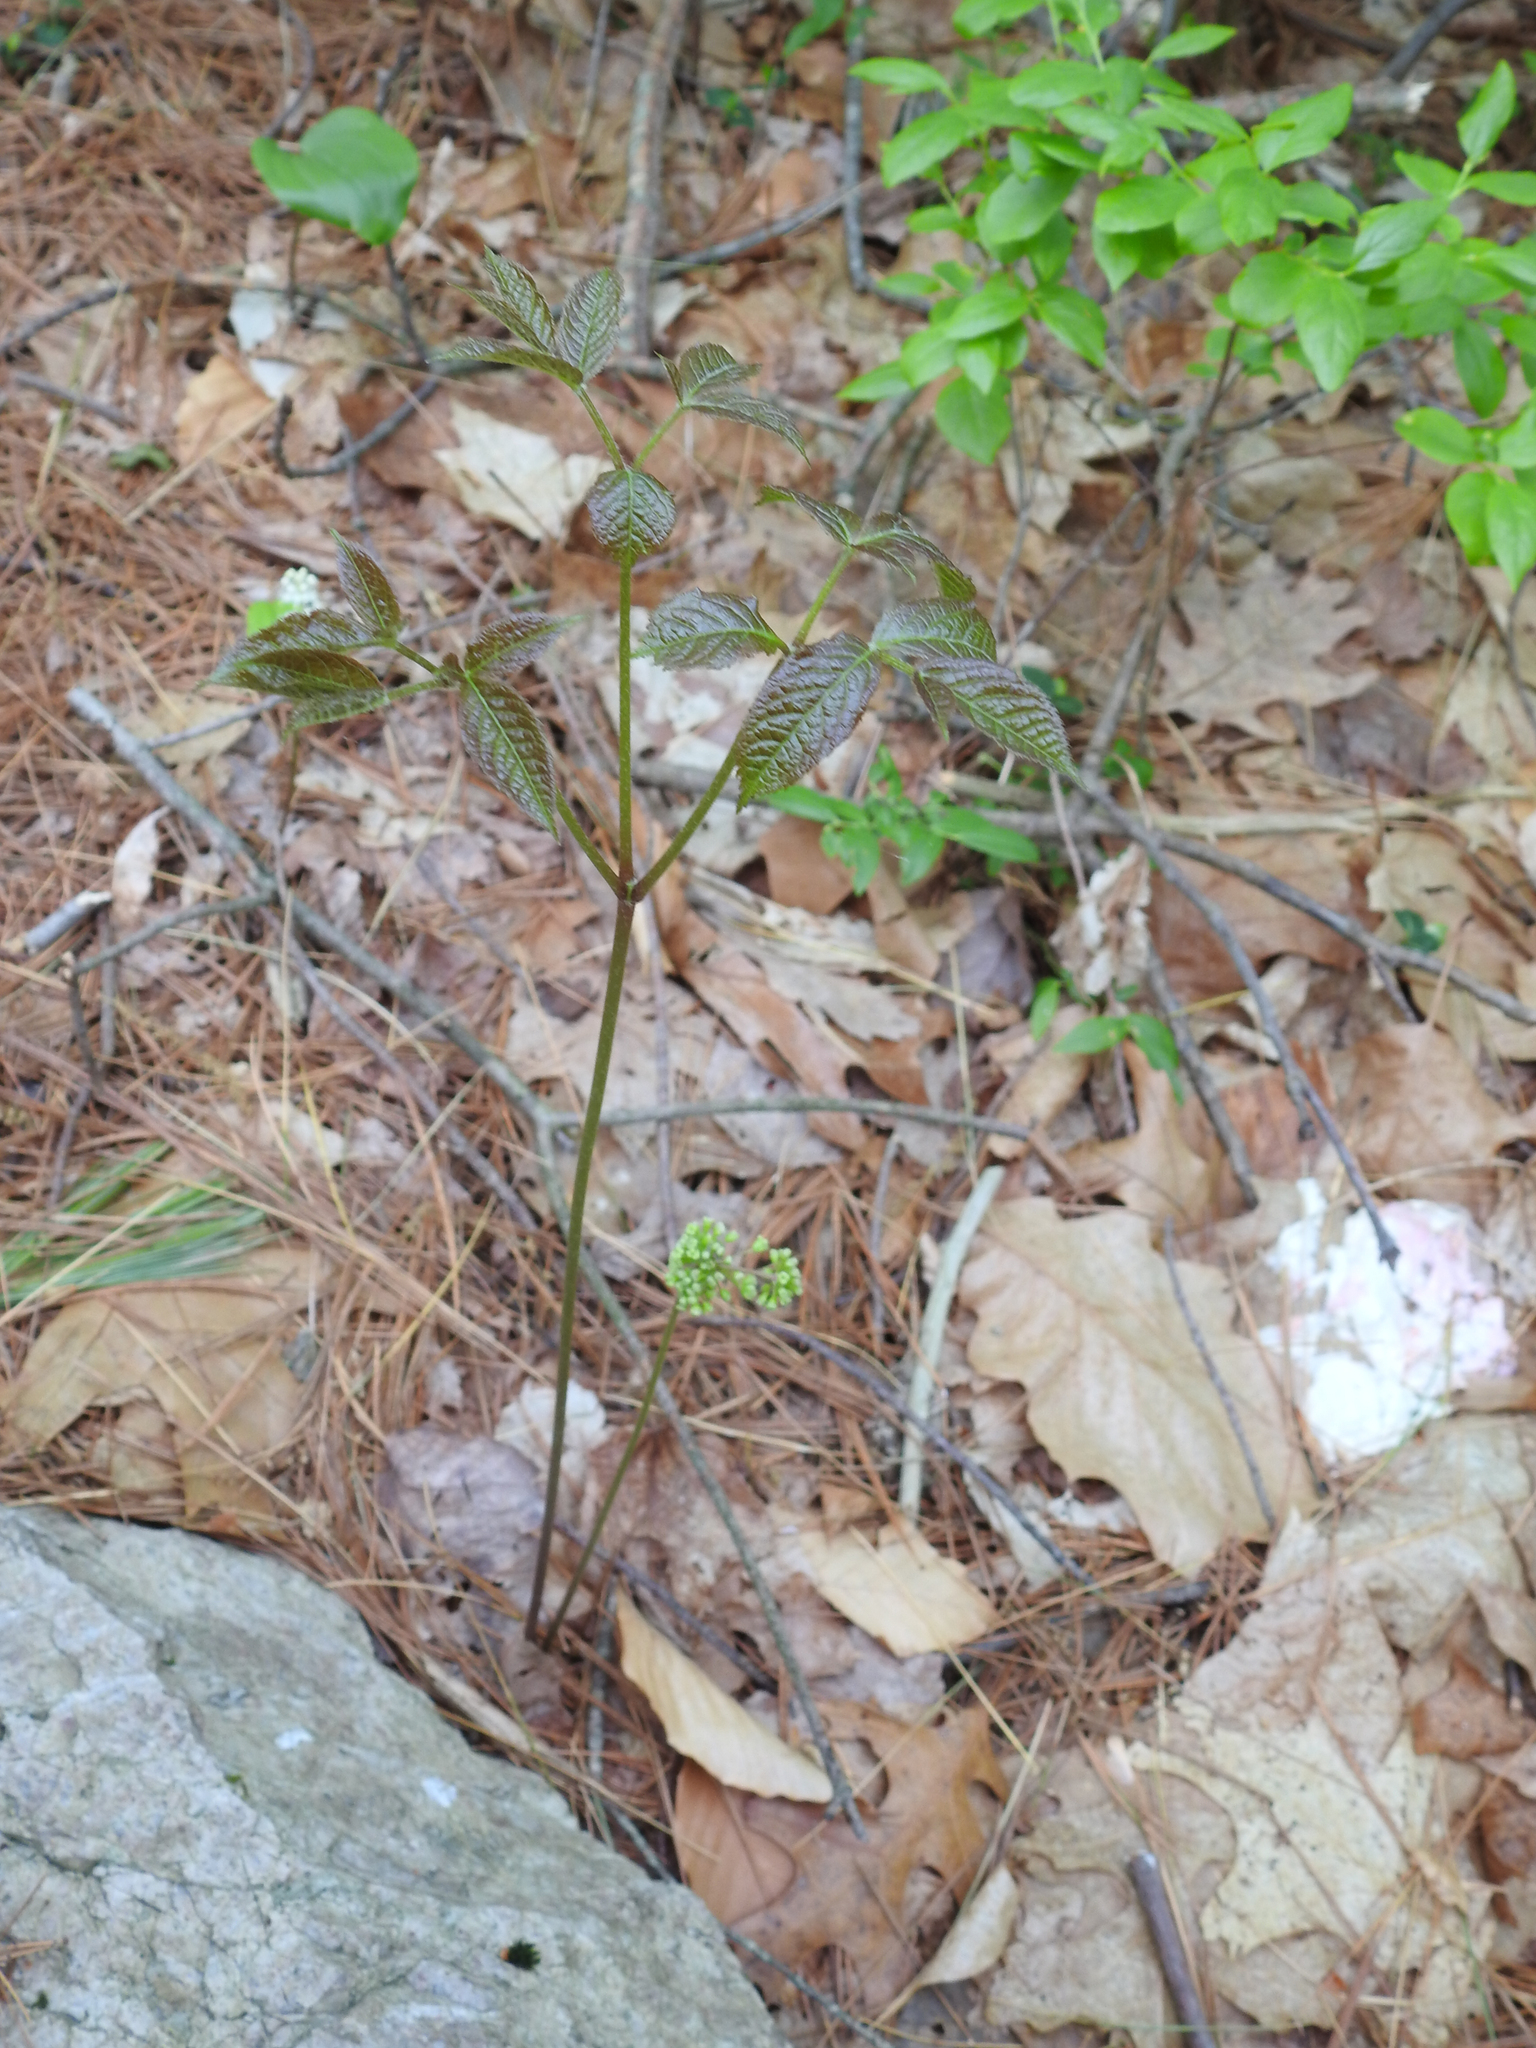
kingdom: Plantae
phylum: Tracheophyta
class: Magnoliopsida
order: Apiales
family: Araliaceae
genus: Aralia
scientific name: Aralia nudicaulis
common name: Wild sarsaparilla
